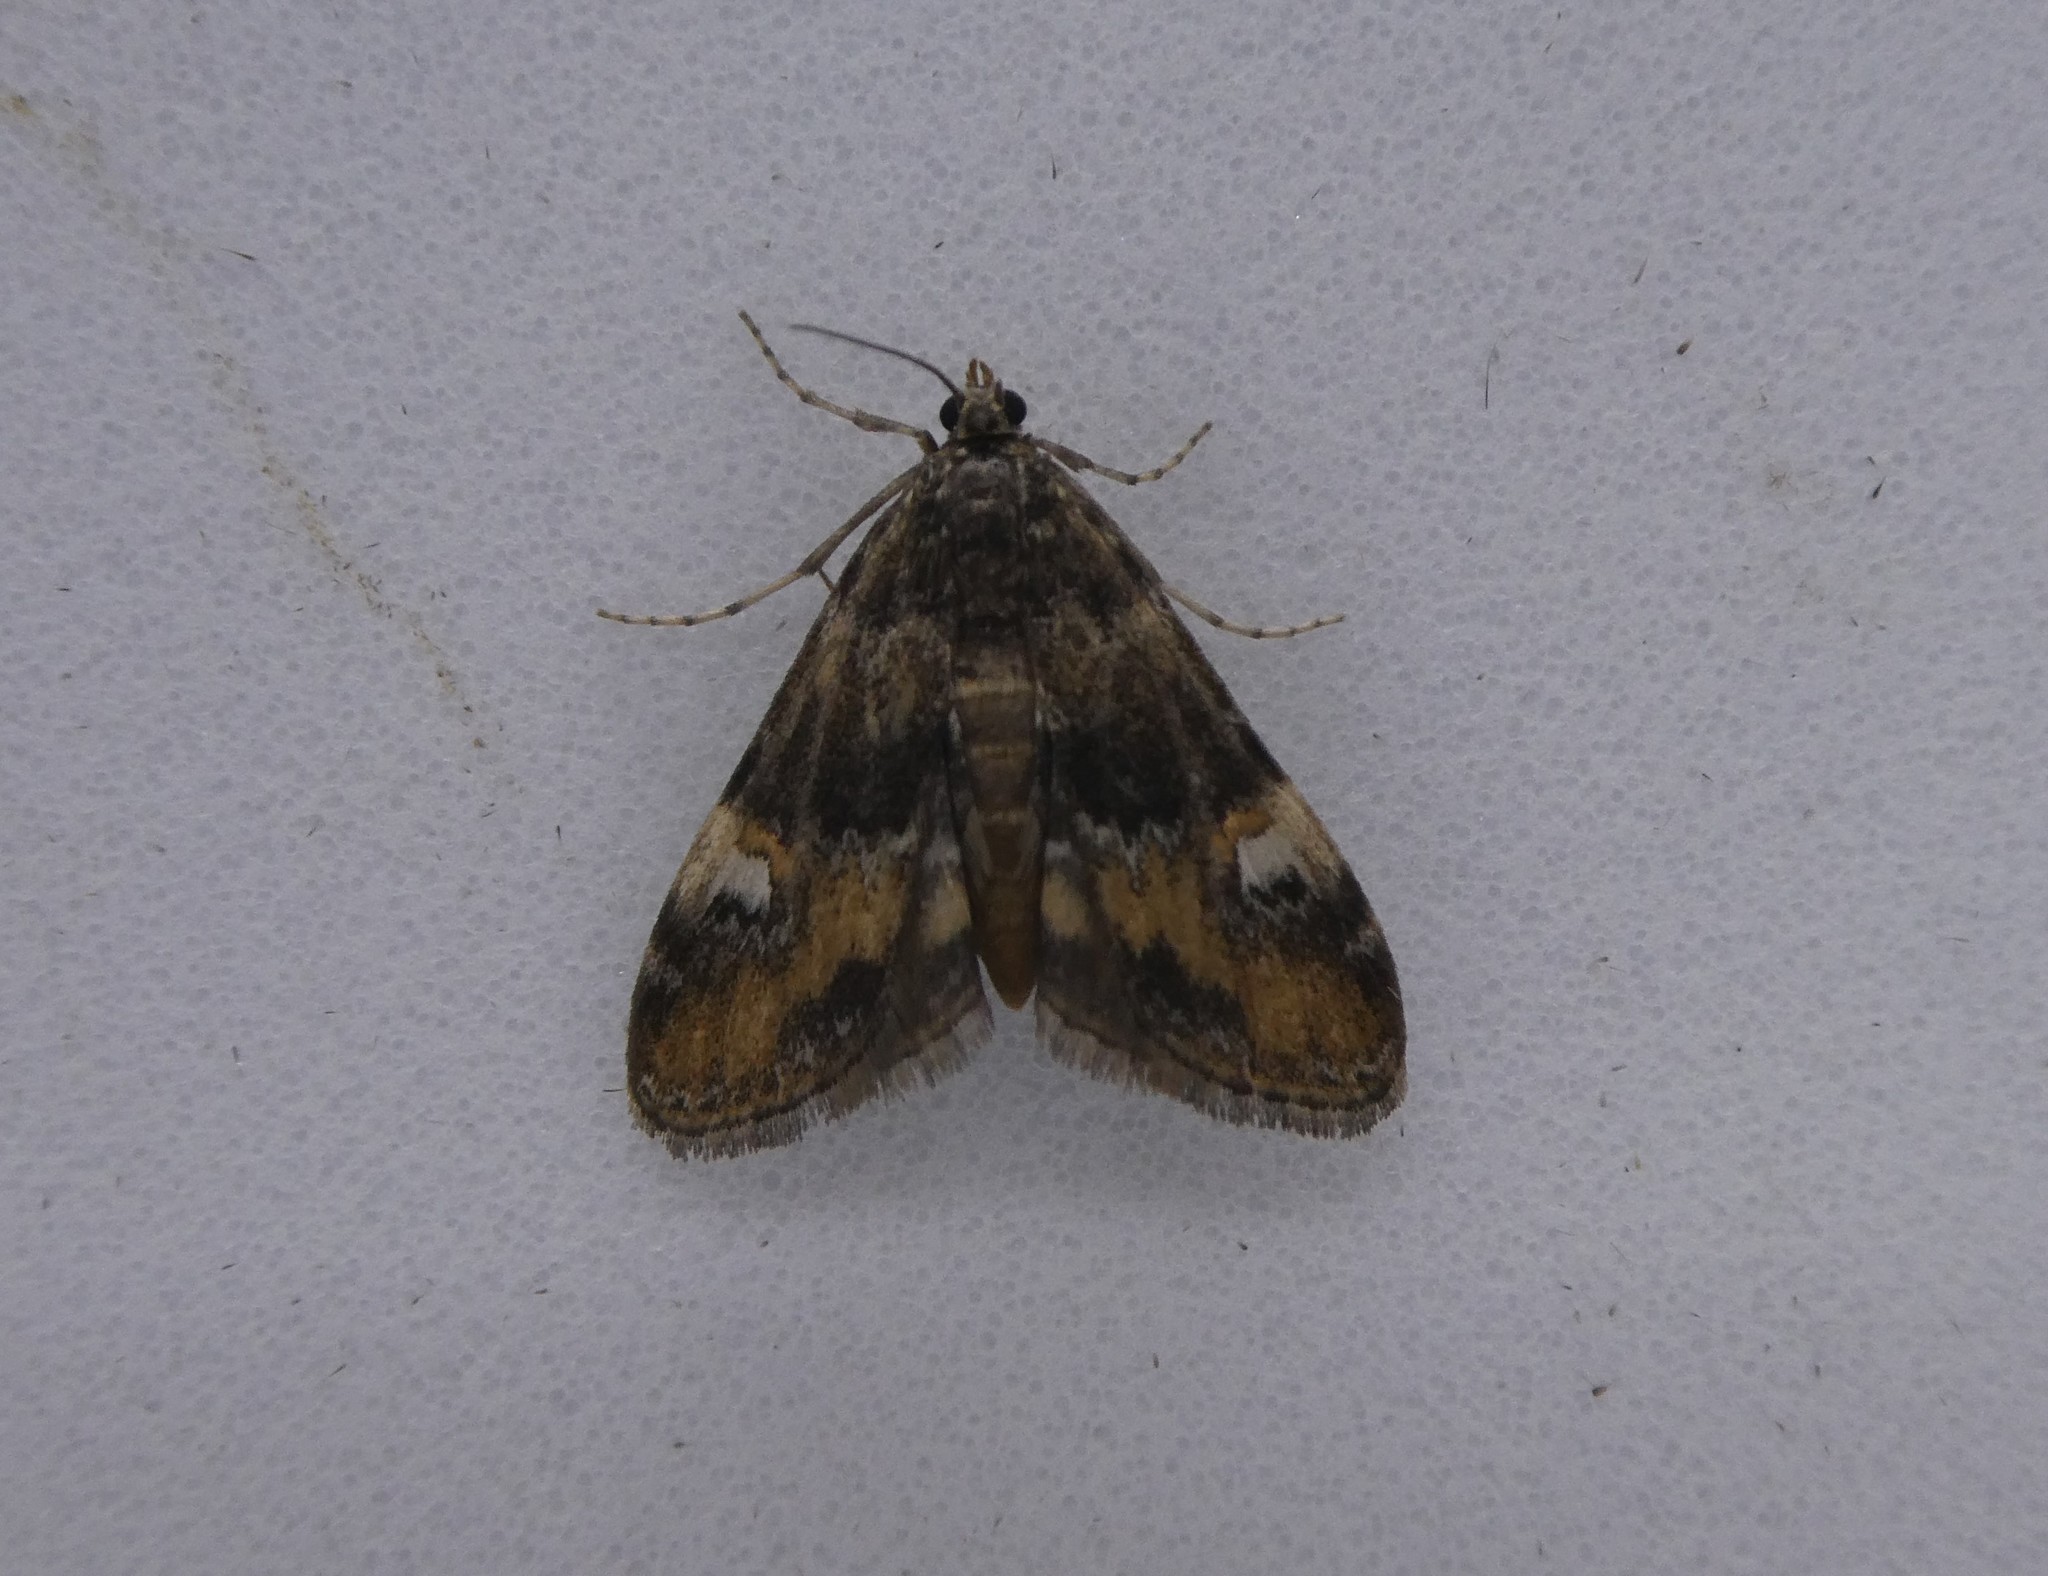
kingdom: Animalia
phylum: Arthropoda
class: Insecta
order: Lepidoptera
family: Crambidae
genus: Elophila
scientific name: Elophila obliteralis
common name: Waterlily leafcutter moth
